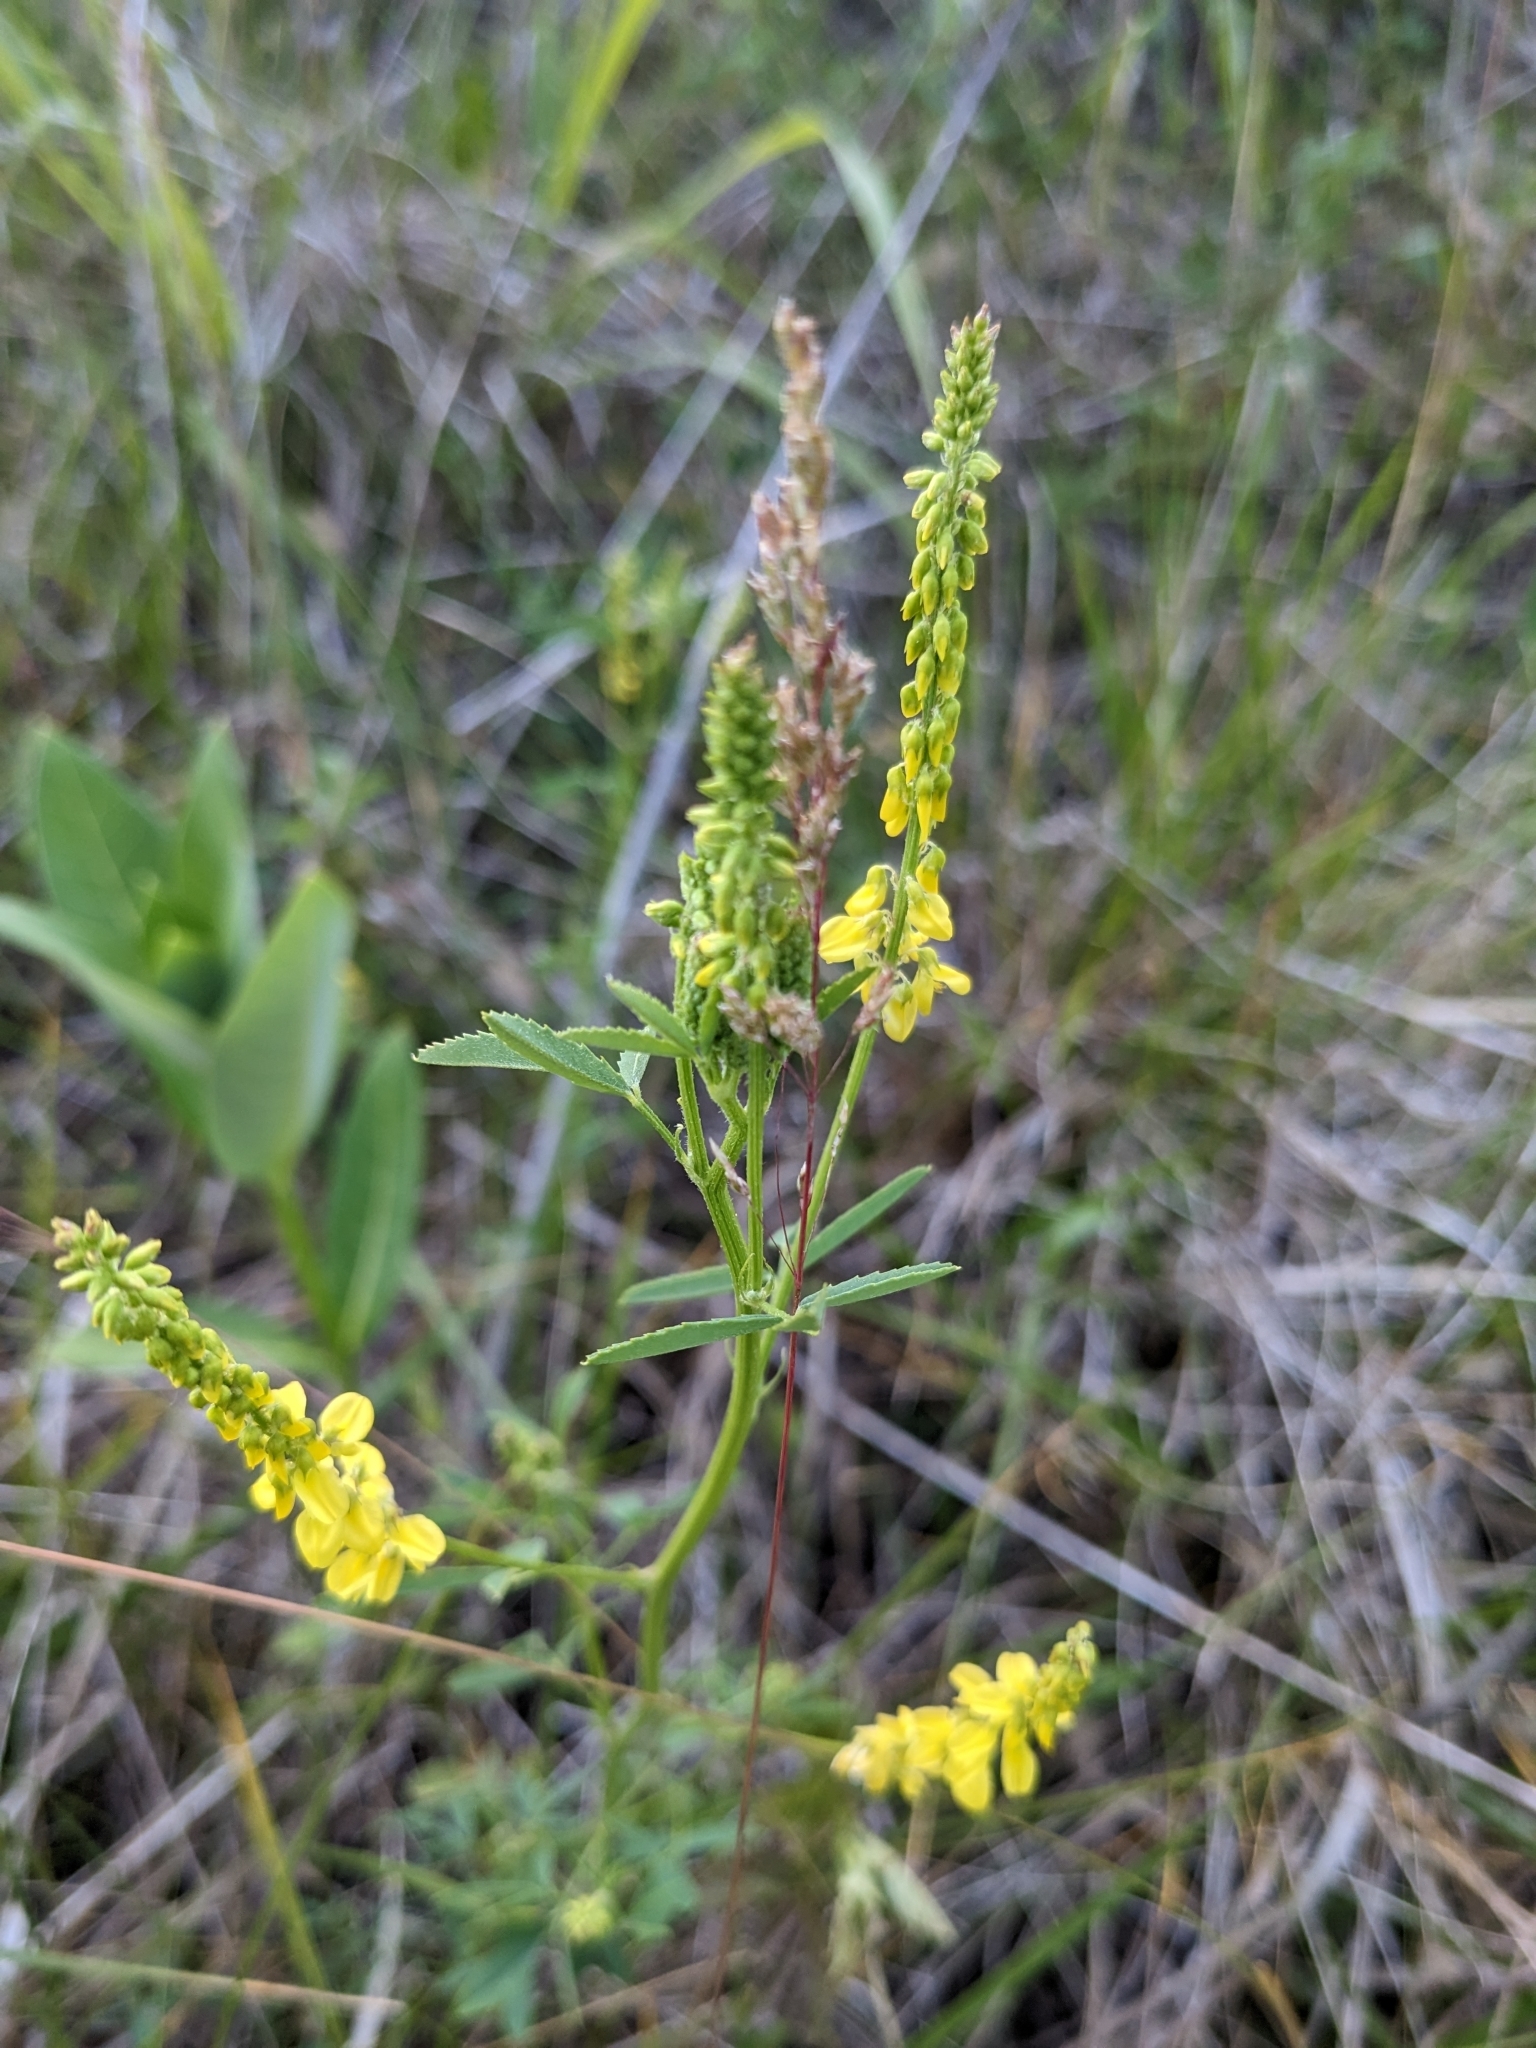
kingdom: Plantae
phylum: Tracheophyta
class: Magnoliopsida
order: Fabales
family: Fabaceae
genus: Melilotus
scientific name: Melilotus officinalis
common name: Sweetclover
